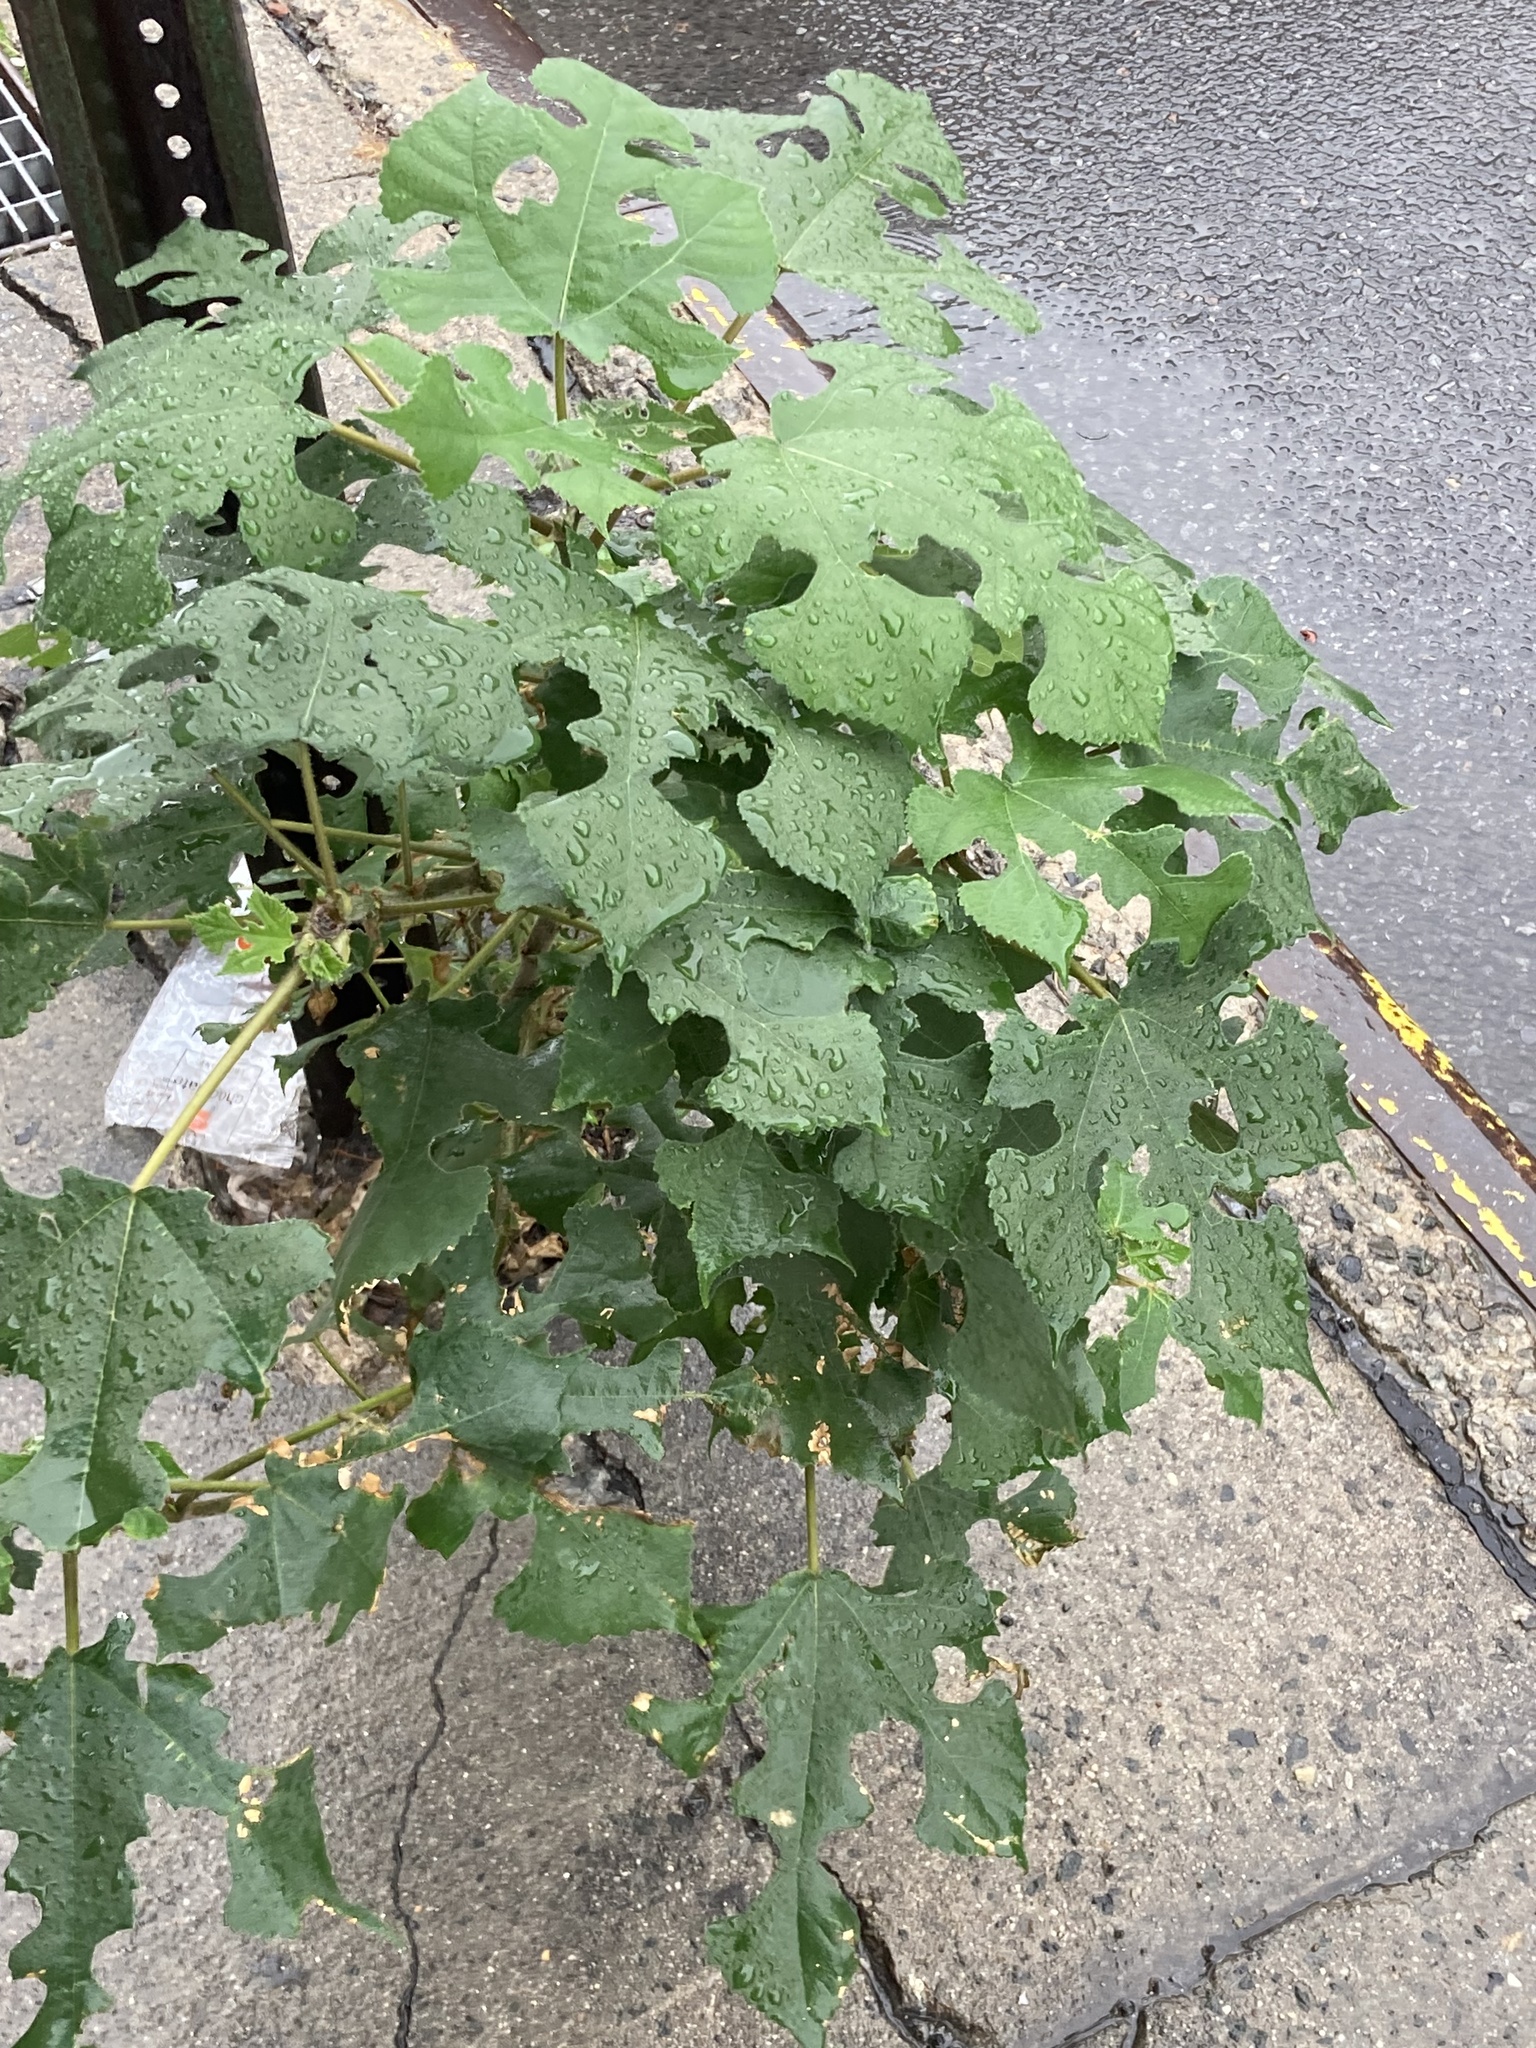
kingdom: Plantae
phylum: Tracheophyta
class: Magnoliopsida
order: Rosales
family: Moraceae
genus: Broussonetia
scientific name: Broussonetia papyrifera
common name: Paper mulberry
